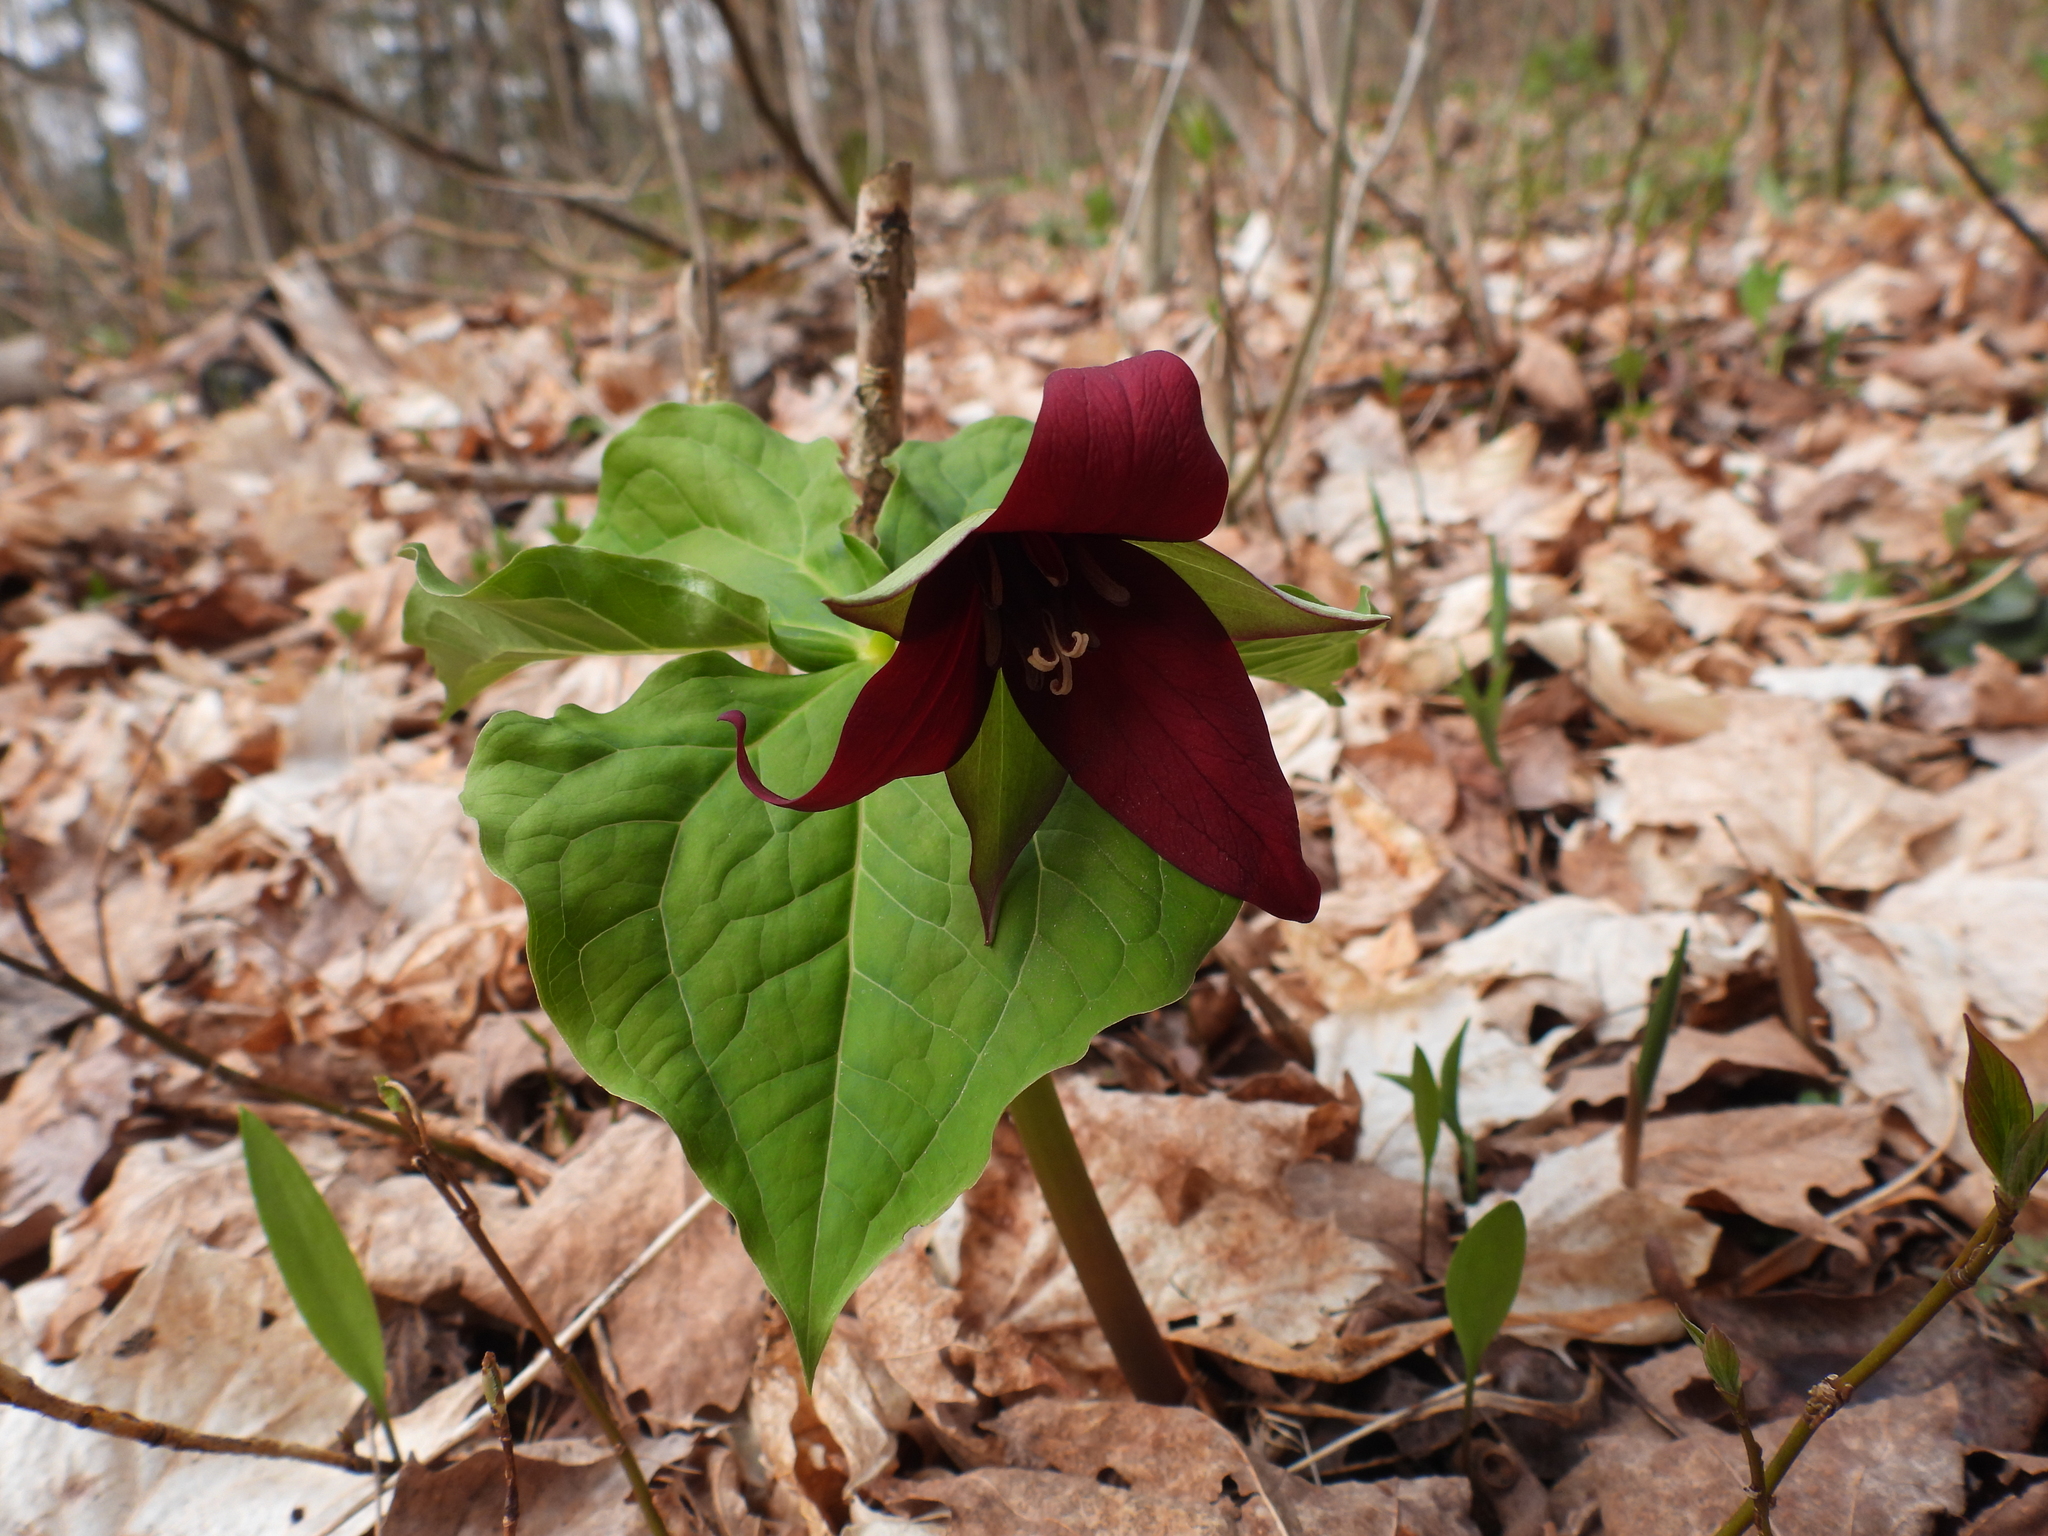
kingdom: Plantae
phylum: Tracheophyta
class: Liliopsida
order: Liliales
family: Melanthiaceae
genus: Trillium
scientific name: Trillium erectum
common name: Purple trillium
